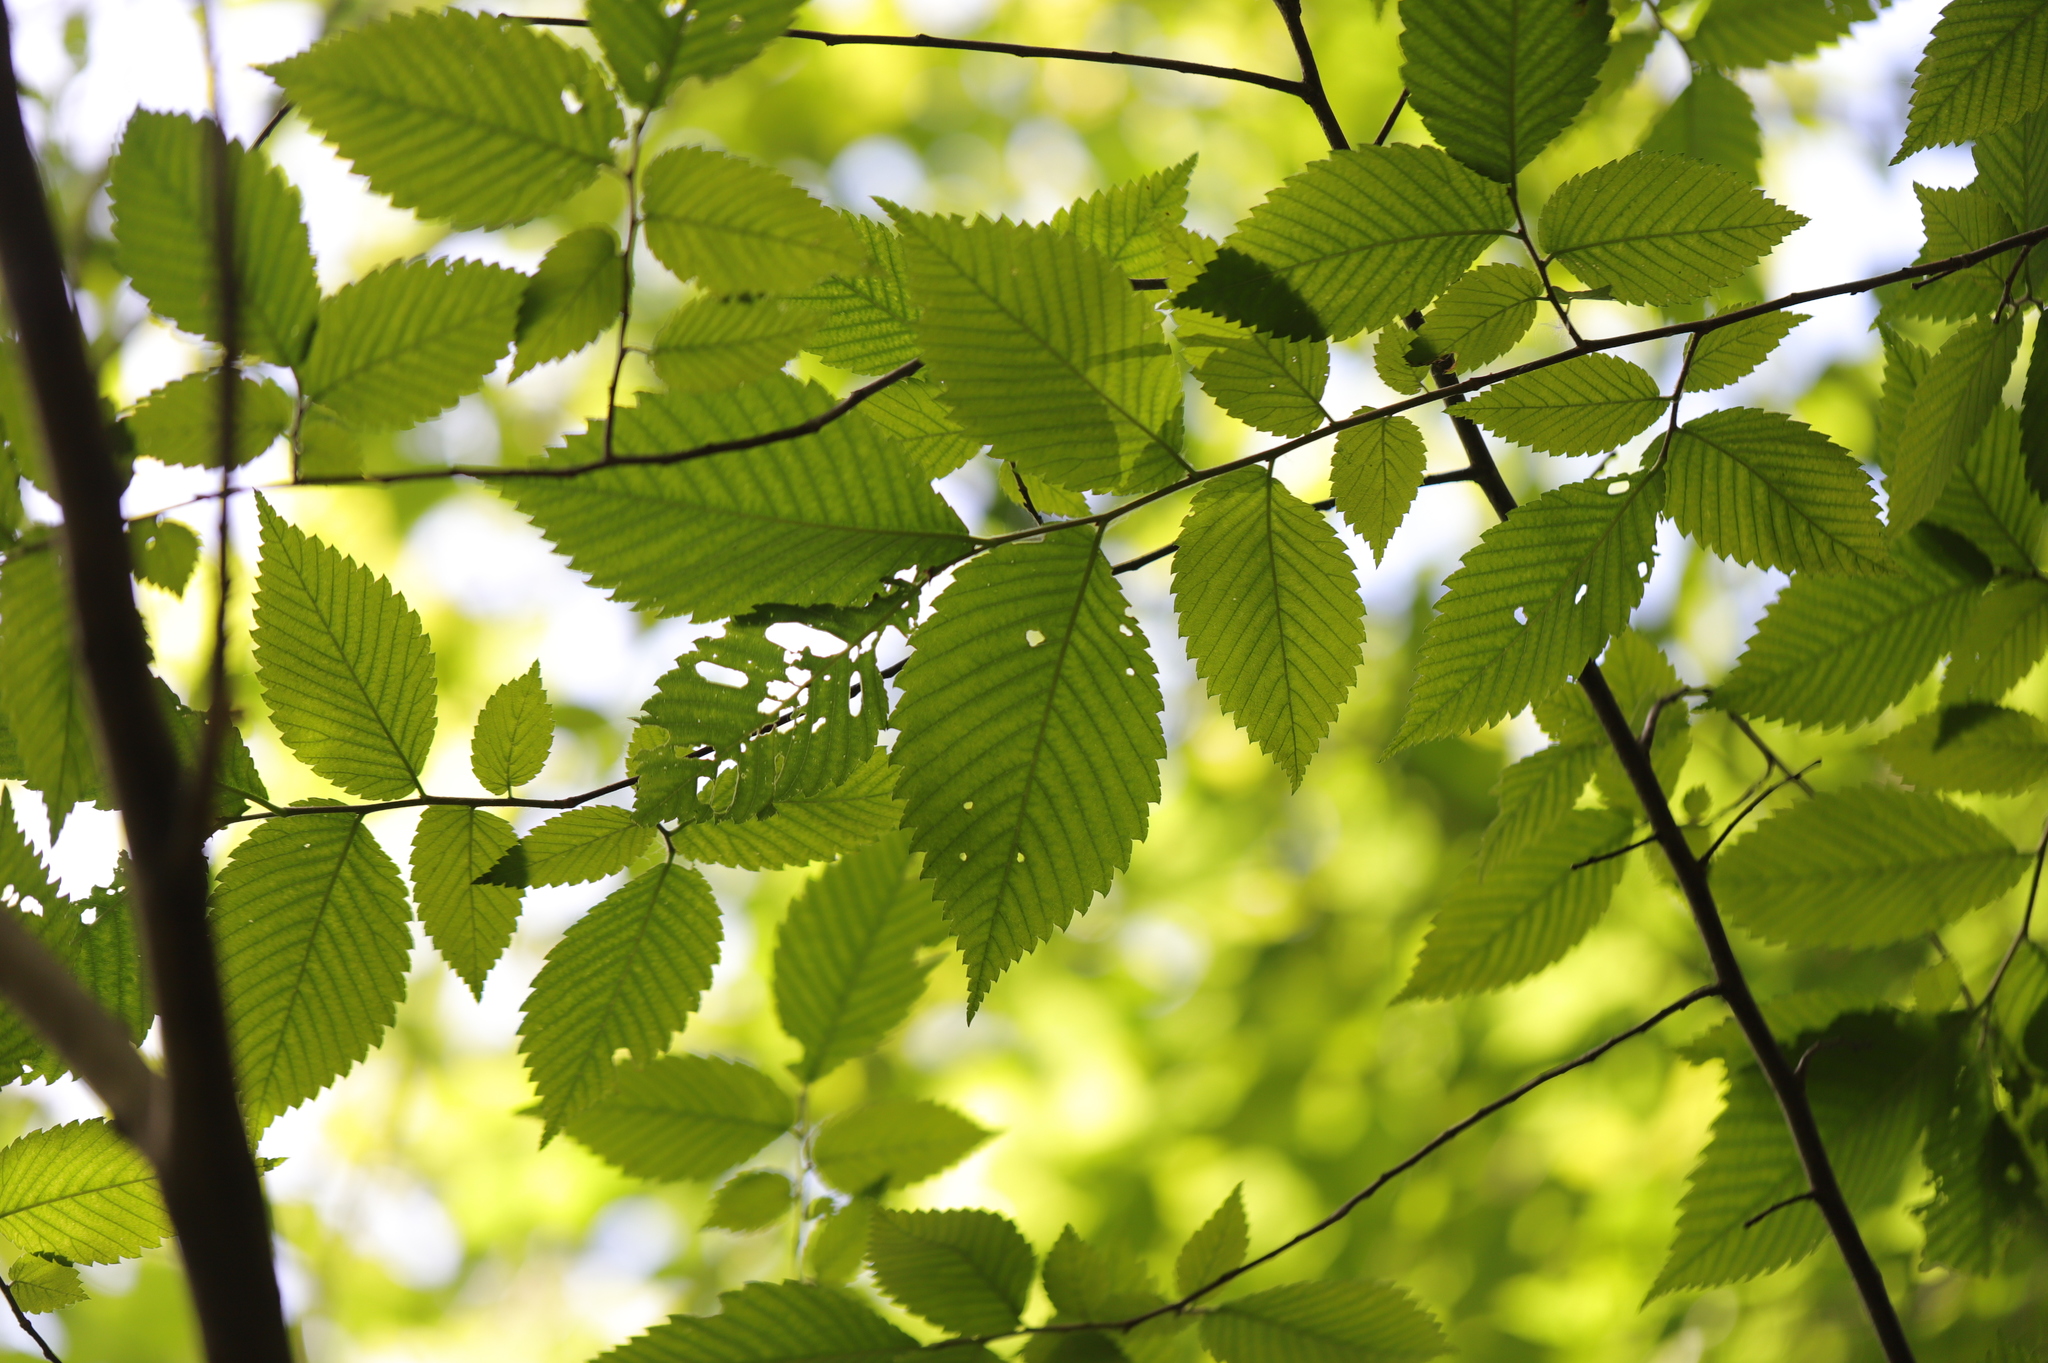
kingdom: Plantae
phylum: Tracheophyta
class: Magnoliopsida
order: Rosales
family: Ulmaceae
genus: Ulmus
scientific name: Ulmus americana
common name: American elm
